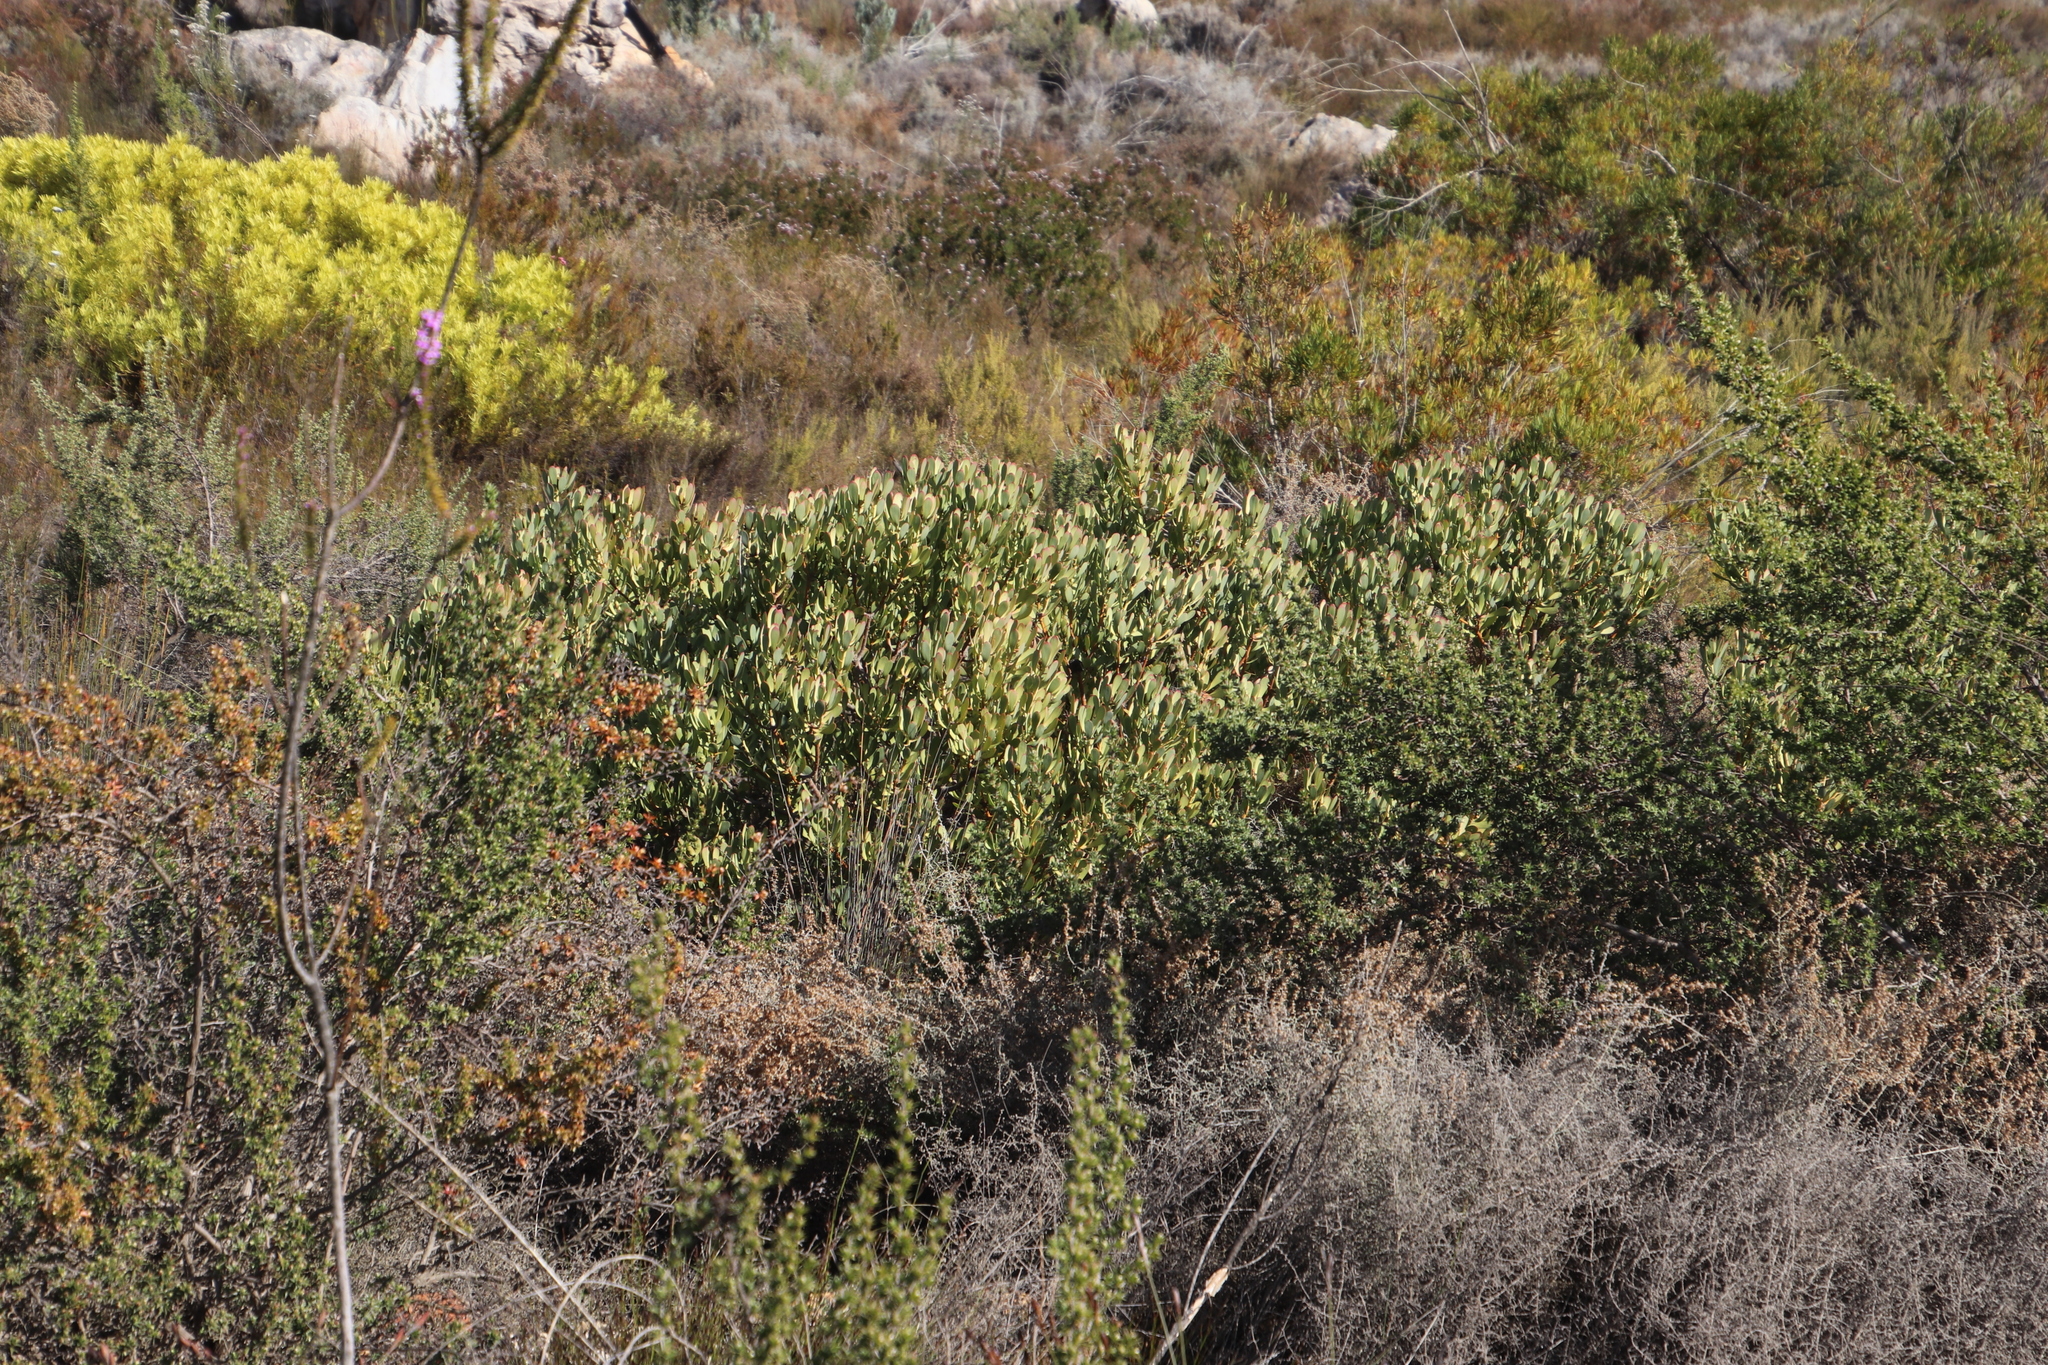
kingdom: Plantae
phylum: Tracheophyta
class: Magnoliopsida
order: Proteales
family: Proteaceae
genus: Leucadendron
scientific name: Leucadendron arcuatum
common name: Red-edge conebush
